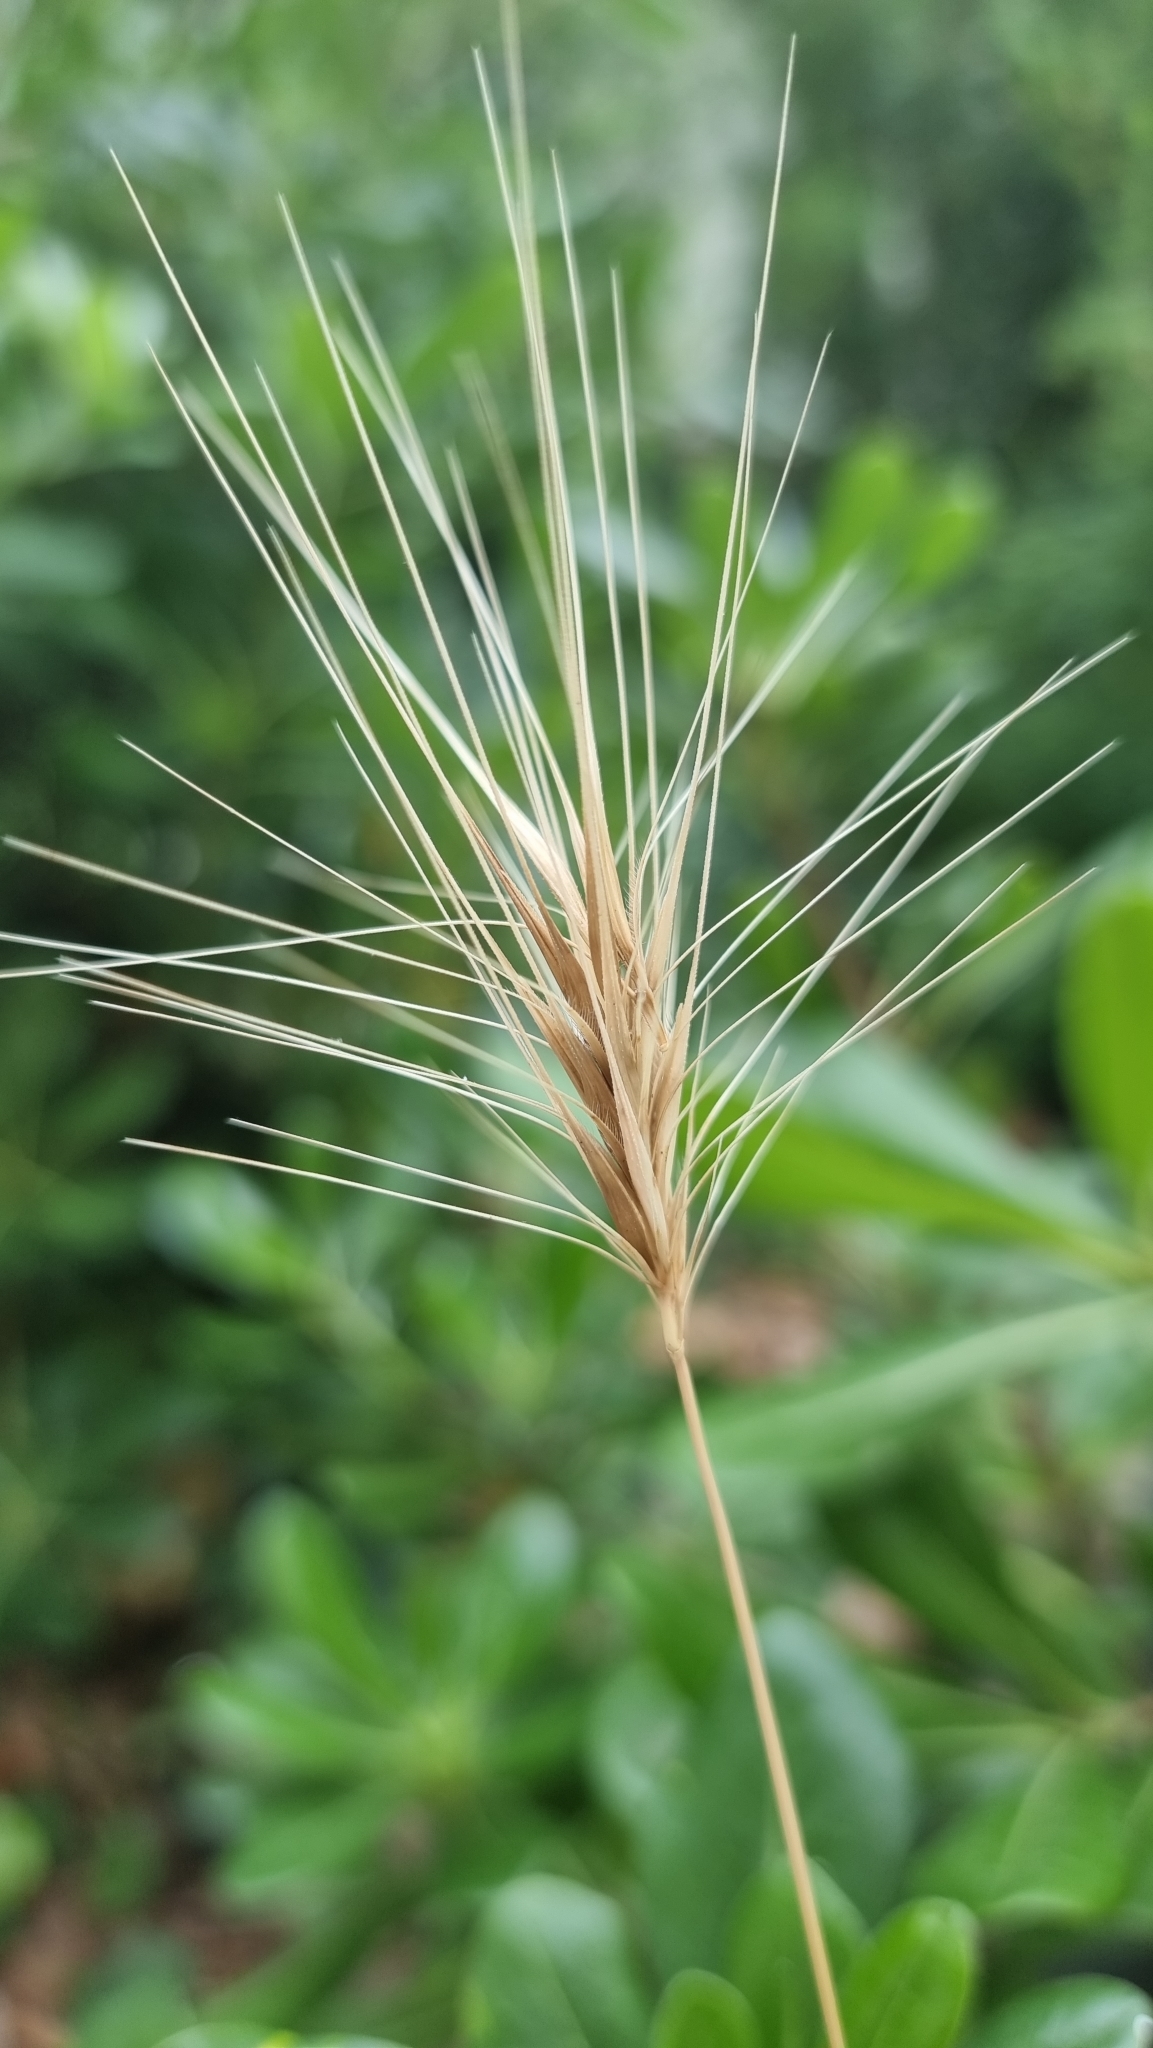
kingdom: Plantae
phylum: Tracheophyta
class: Liliopsida
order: Poales
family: Poaceae
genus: Hordeum
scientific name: Hordeum murinum
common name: Wall barley
